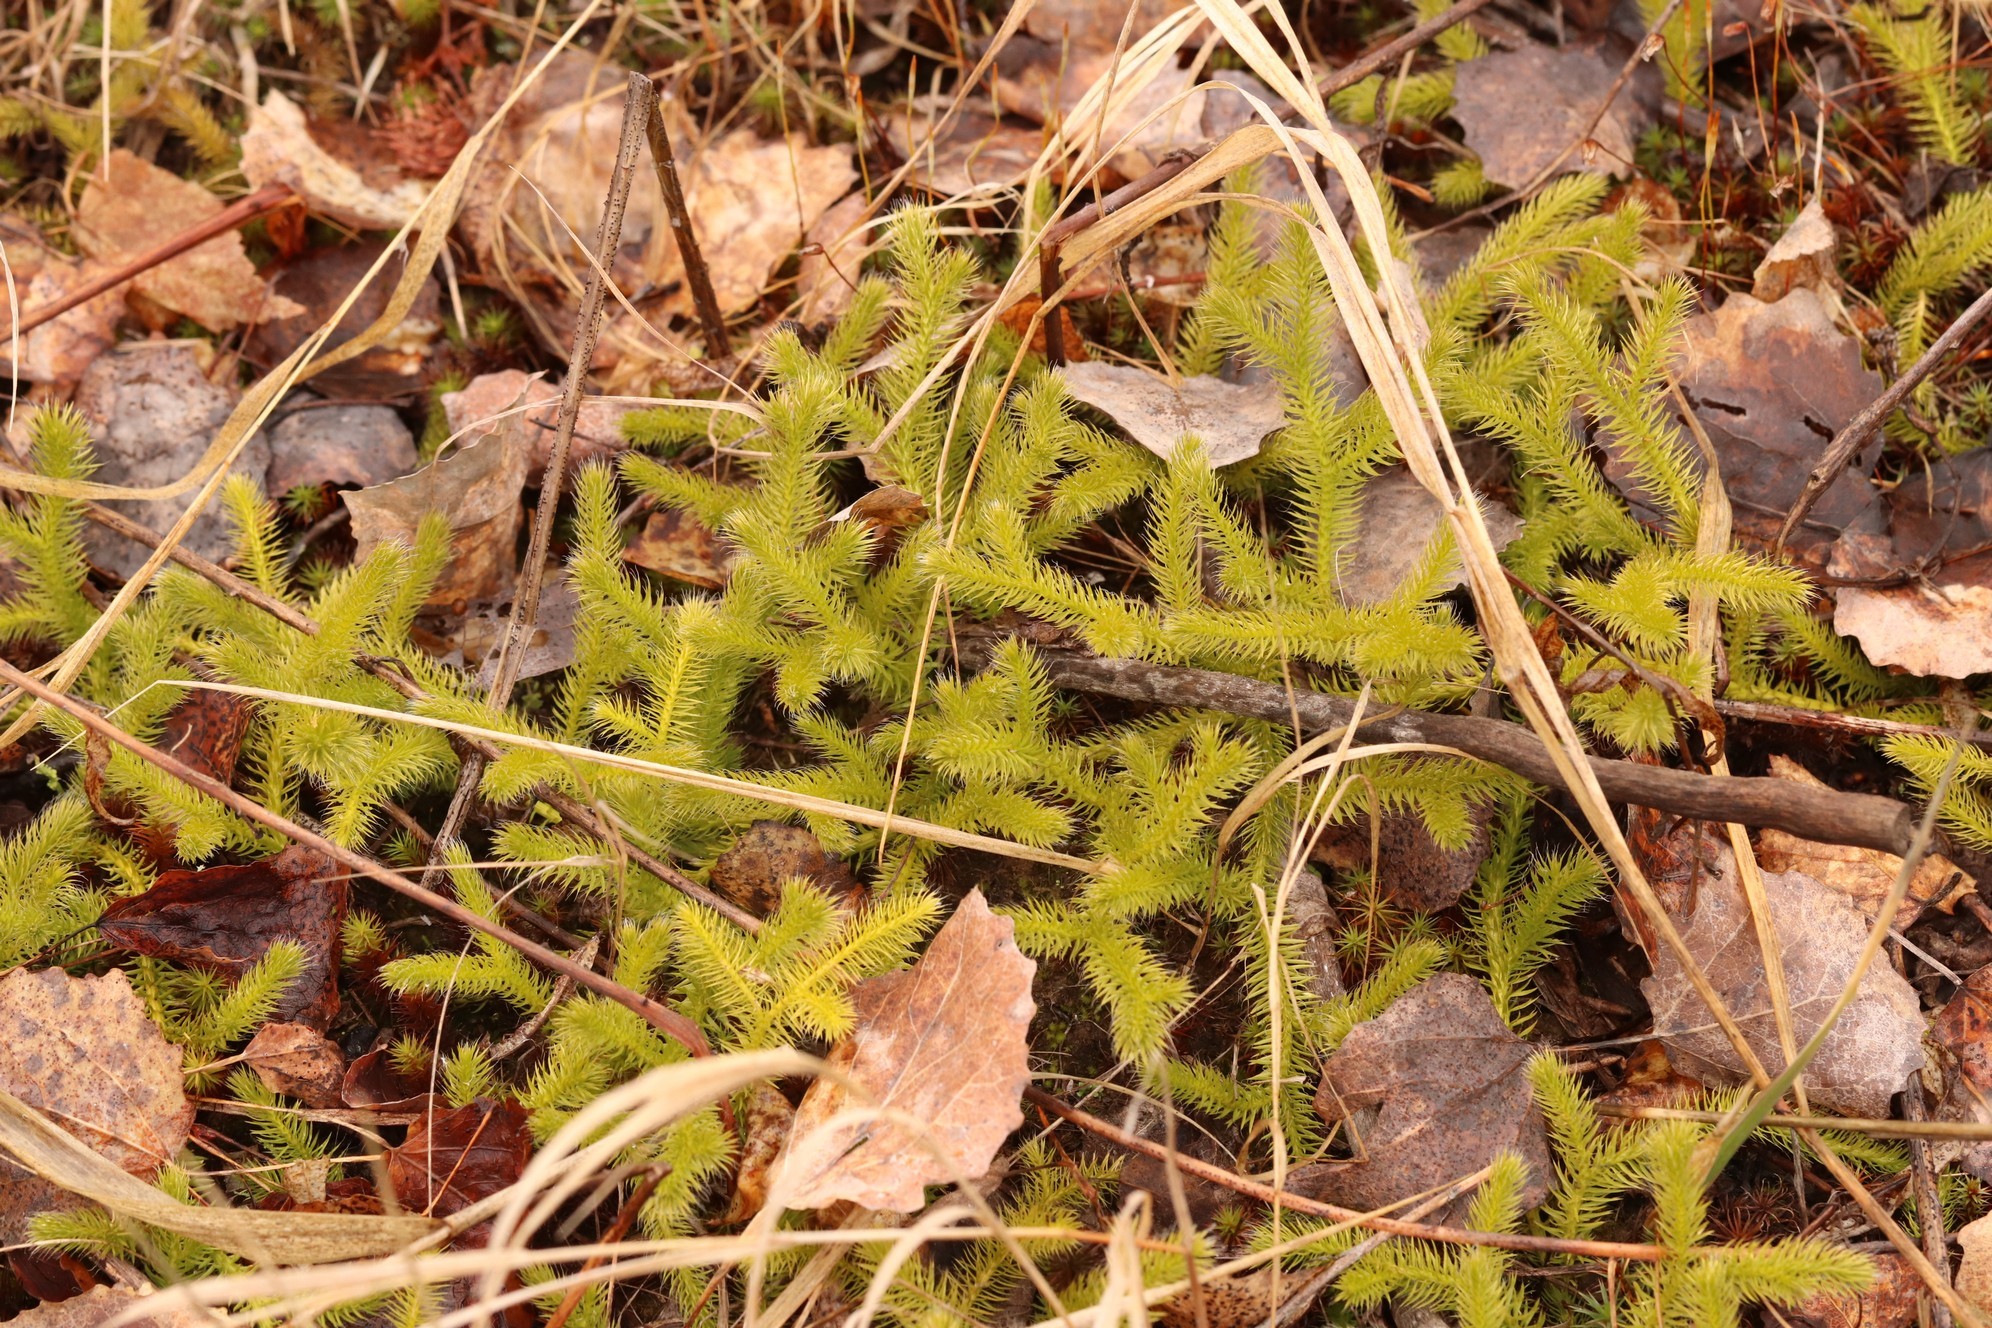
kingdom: Plantae
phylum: Tracheophyta
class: Lycopodiopsida
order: Lycopodiales
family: Lycopodiaceae
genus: Lycopodium
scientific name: Lycopodium clavatum
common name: Stag's-horn clubmoss
